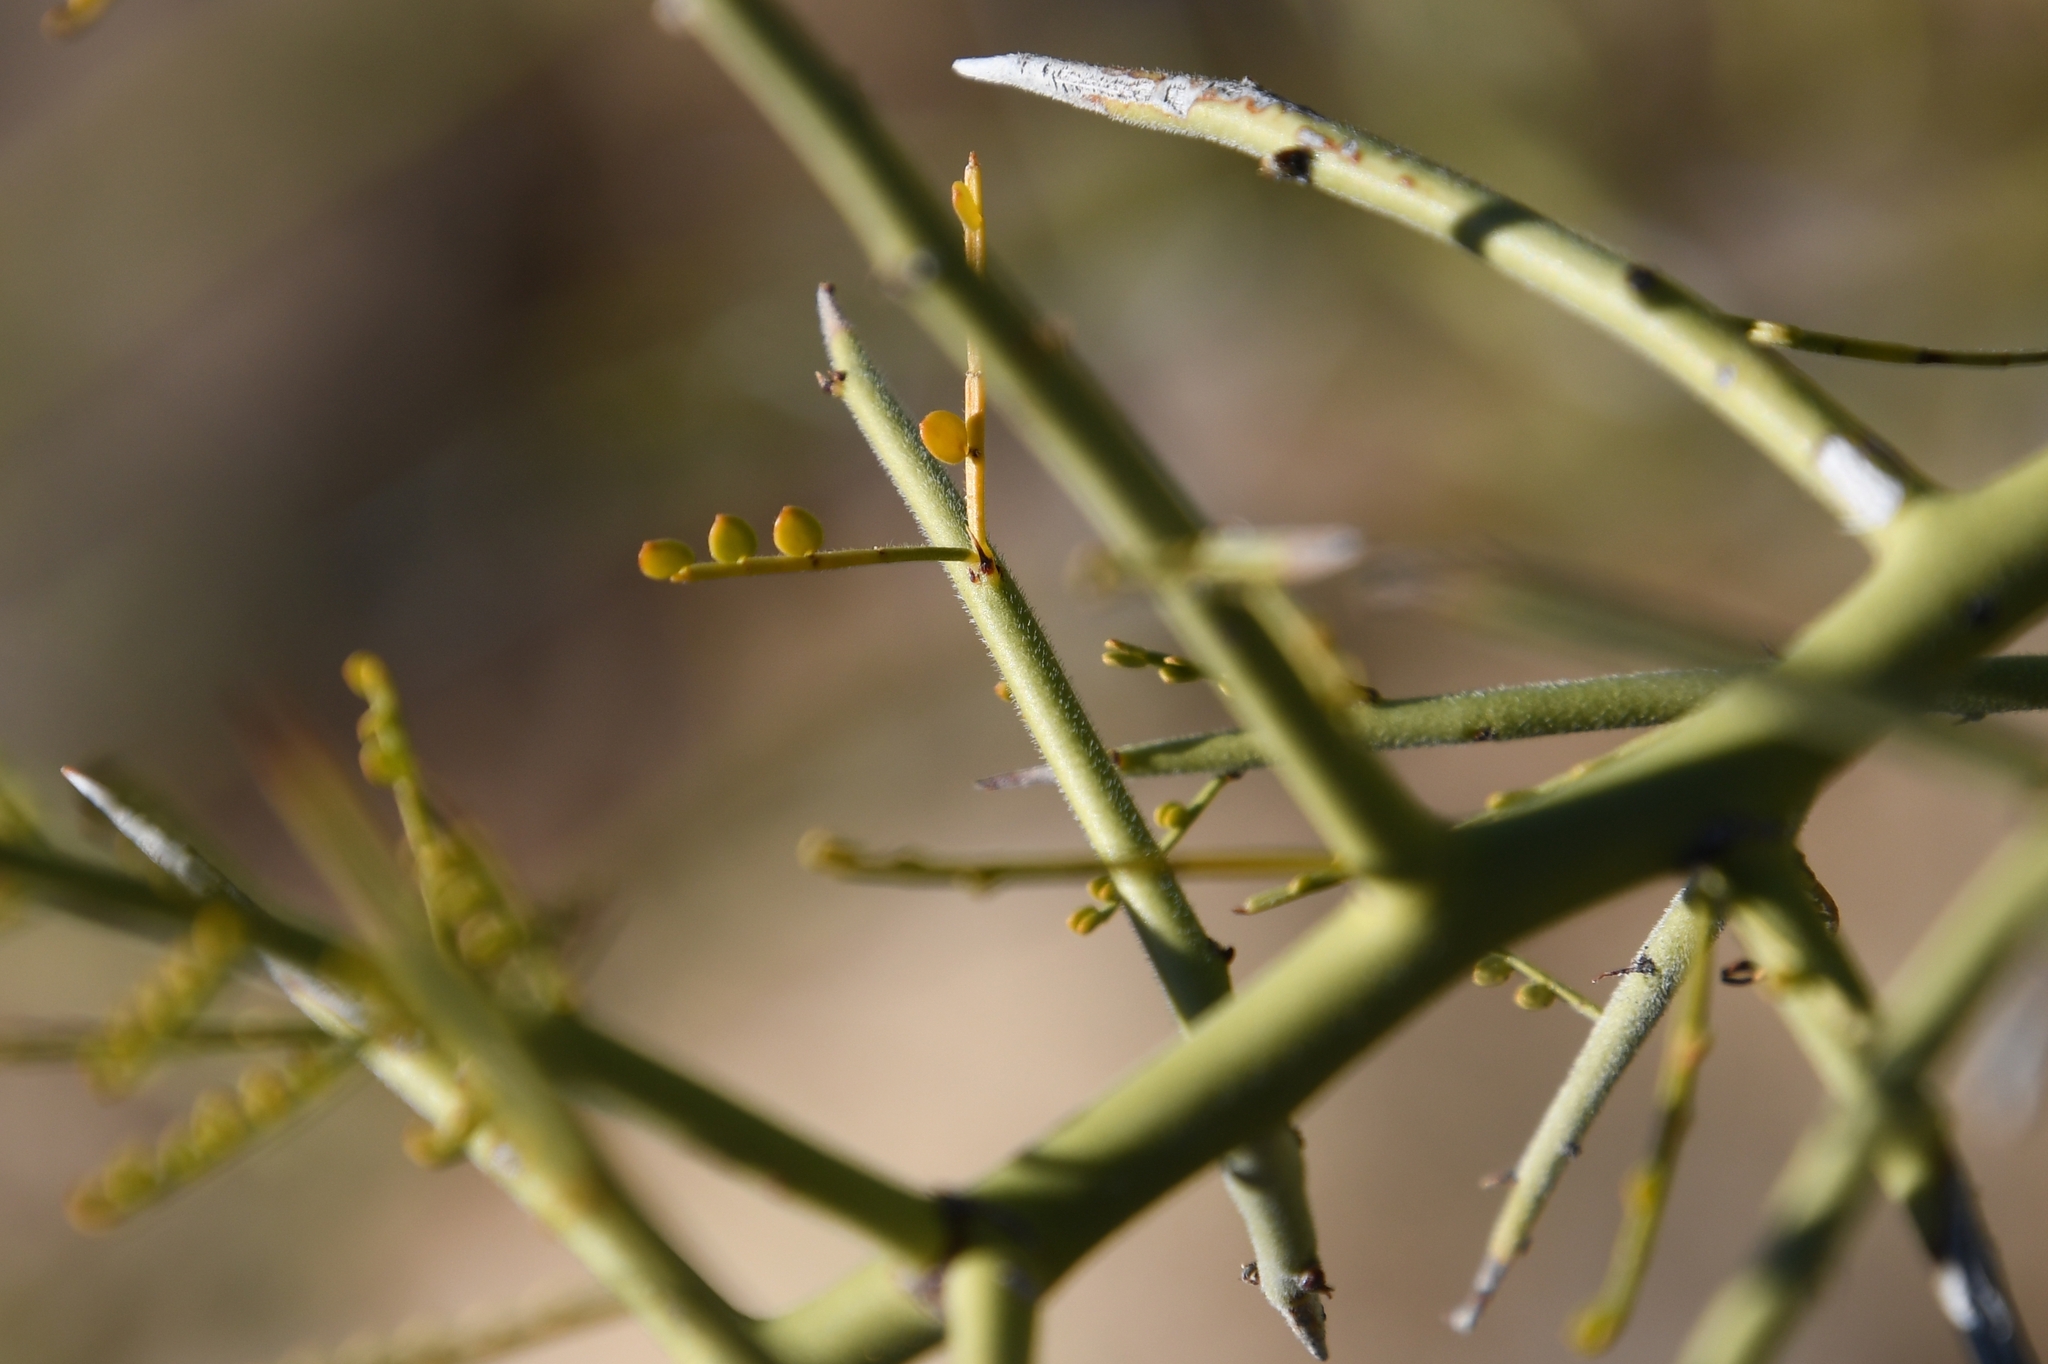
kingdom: Plantae
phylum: Tracheophyta
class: Magnoliopsida
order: Fabales
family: Fabaceae
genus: Parkinsonia
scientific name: Parkinsonia microphylla
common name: Yellow paloverde
